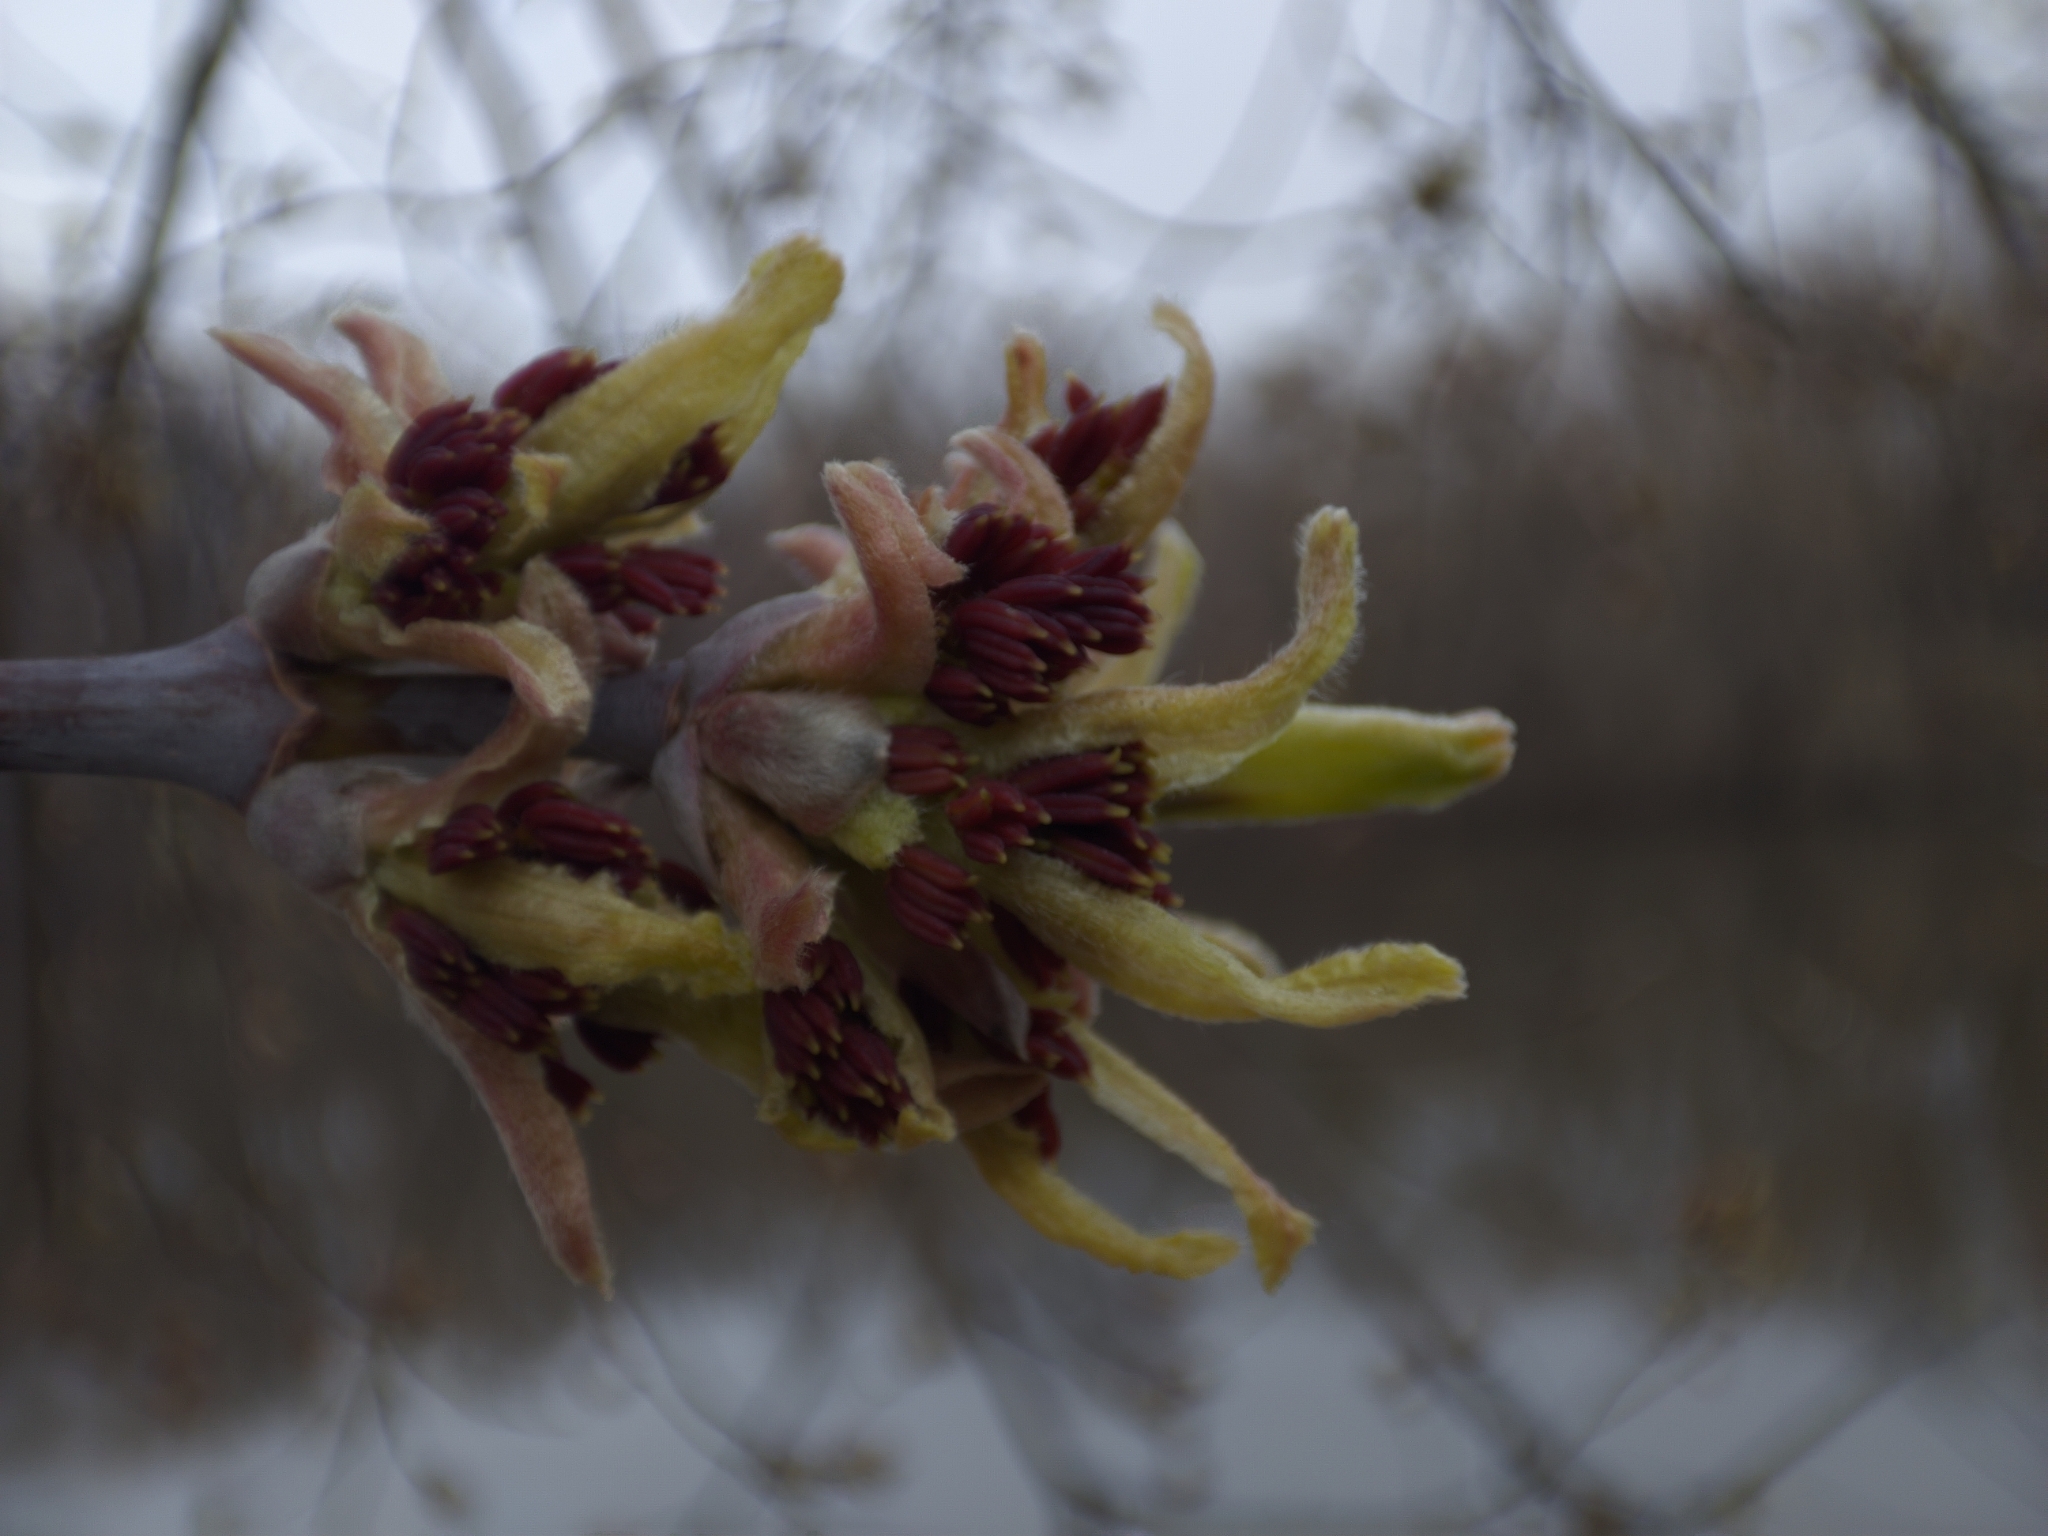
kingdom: Plantae
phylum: Tracheophyta
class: Magnoliopsida
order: Sapindales
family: Sapindaceae
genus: Acer
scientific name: Acer negundo
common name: Ashleaf maple
